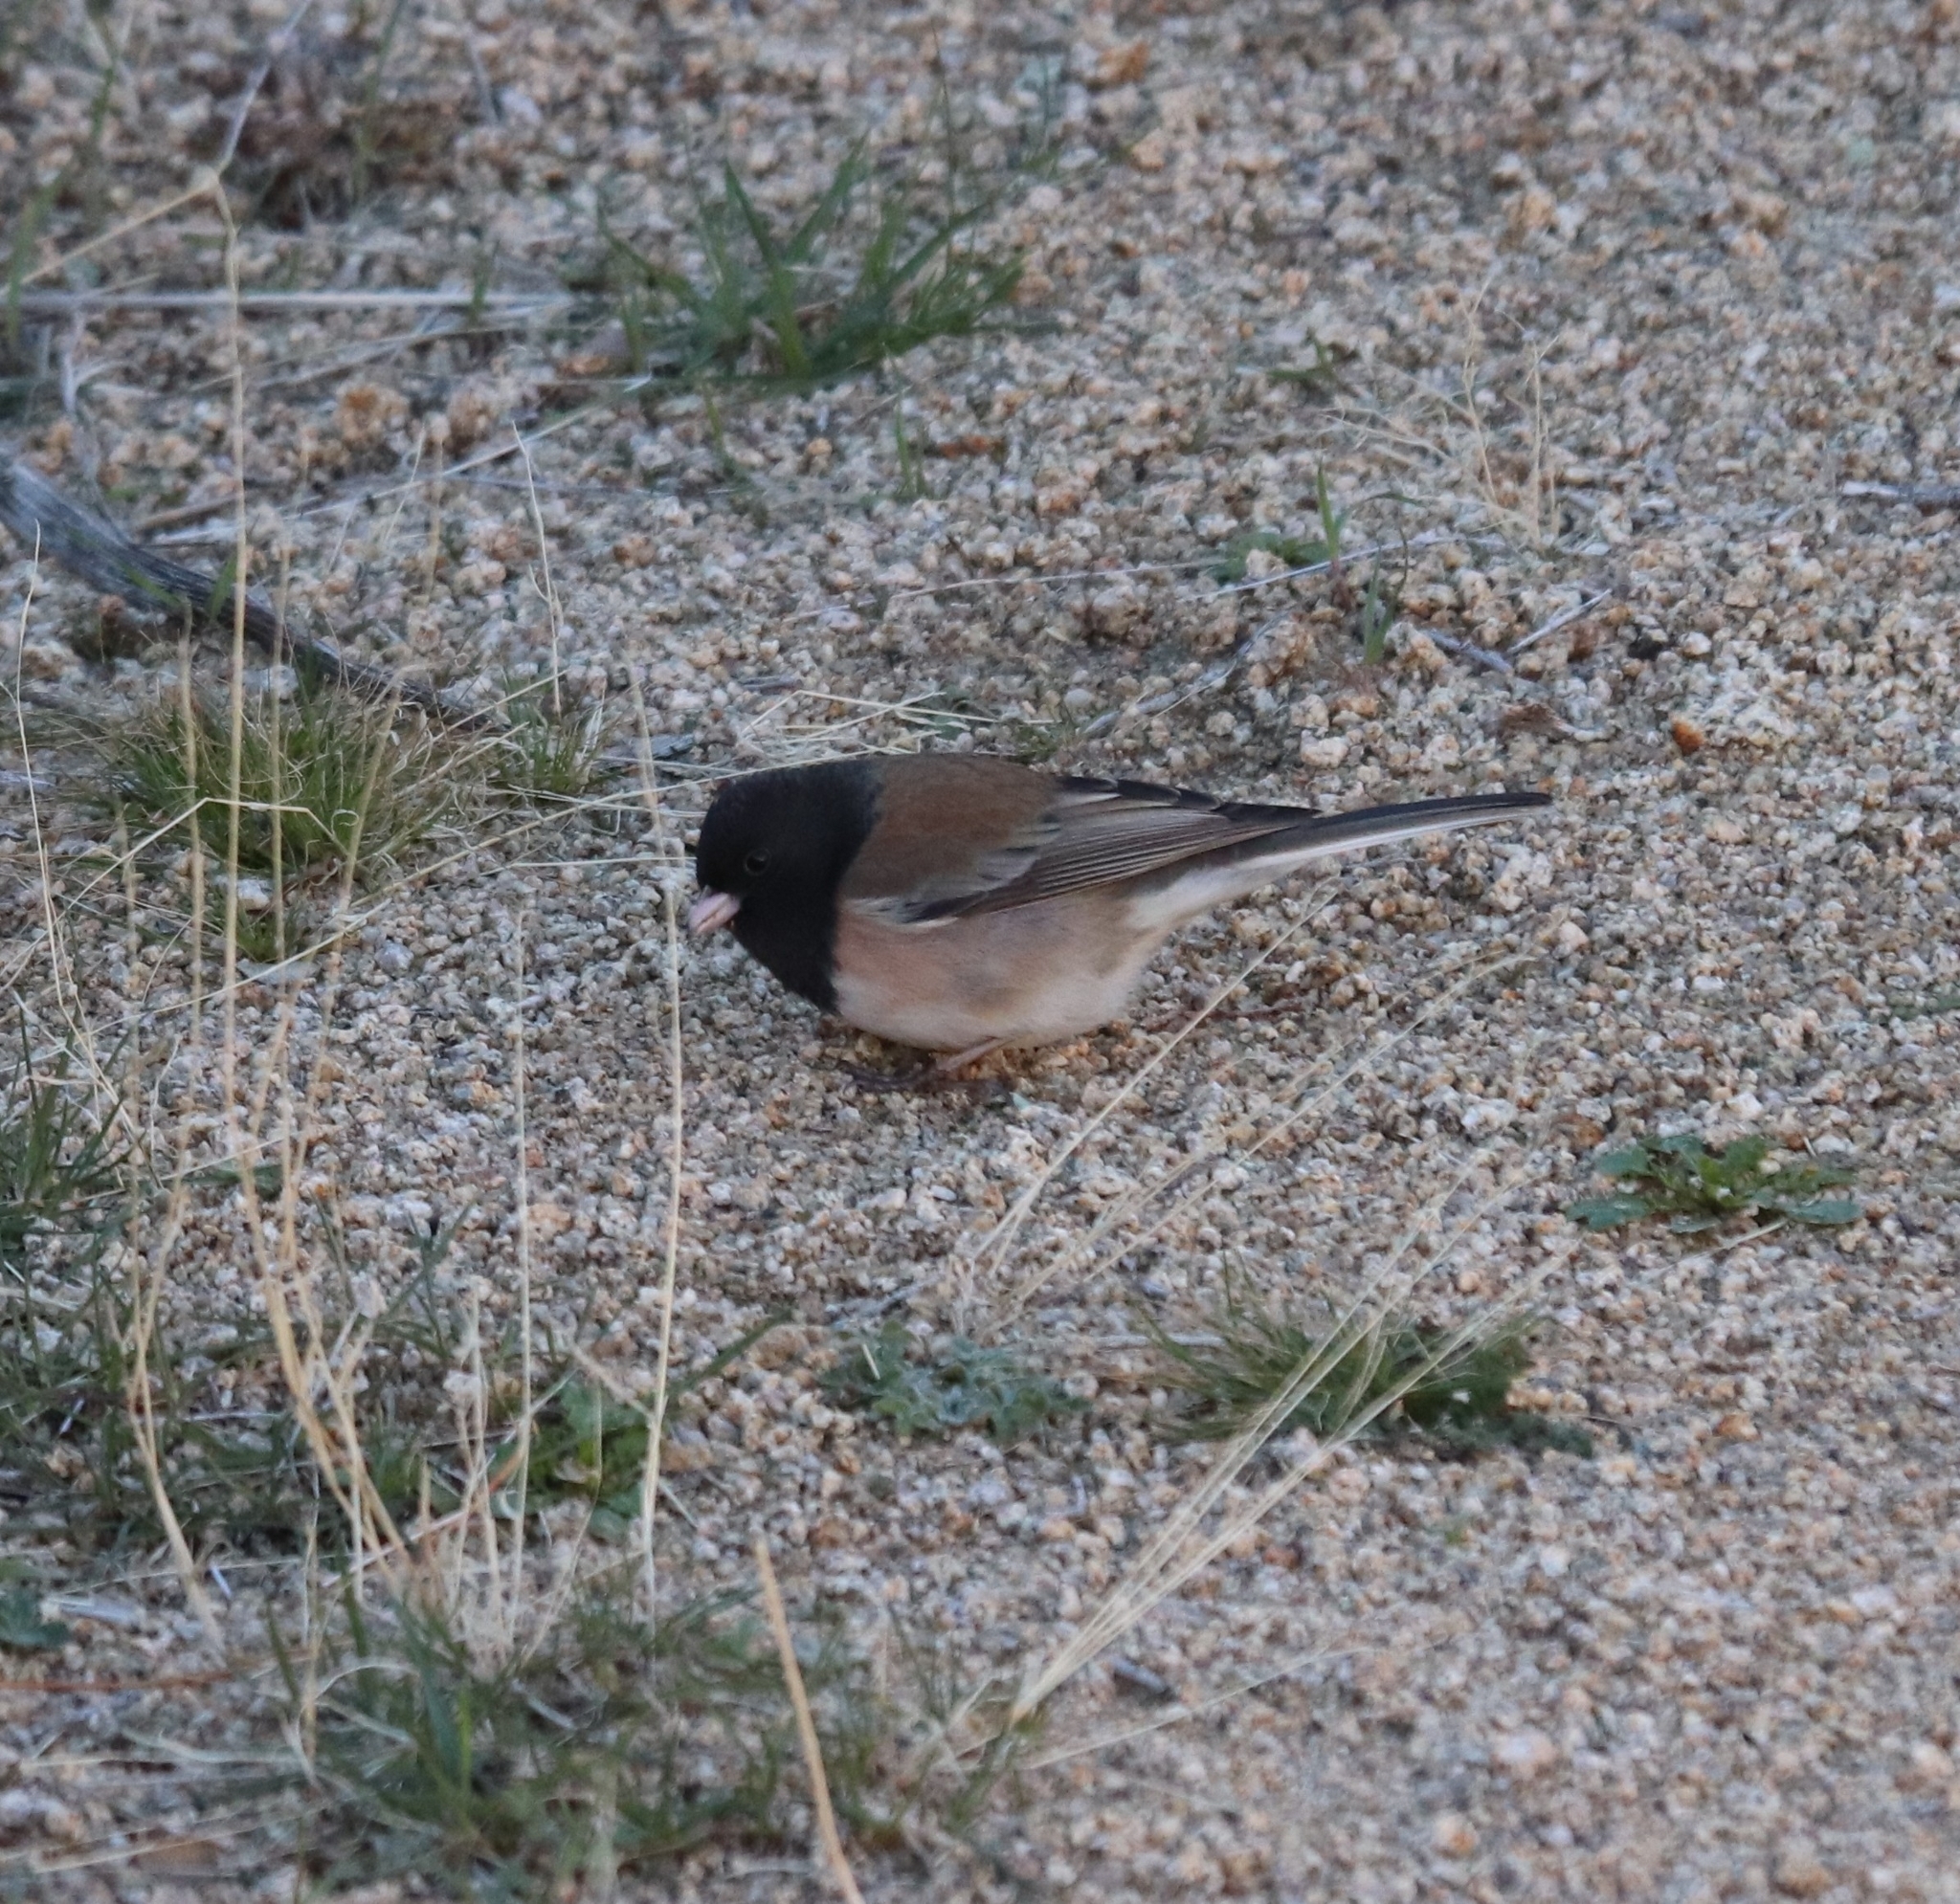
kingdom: Animalia
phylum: Chordata
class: Aves
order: Passeriformes
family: Passerellidae
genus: Junco
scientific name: Junco hyemalis
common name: Dark-eyed junco
